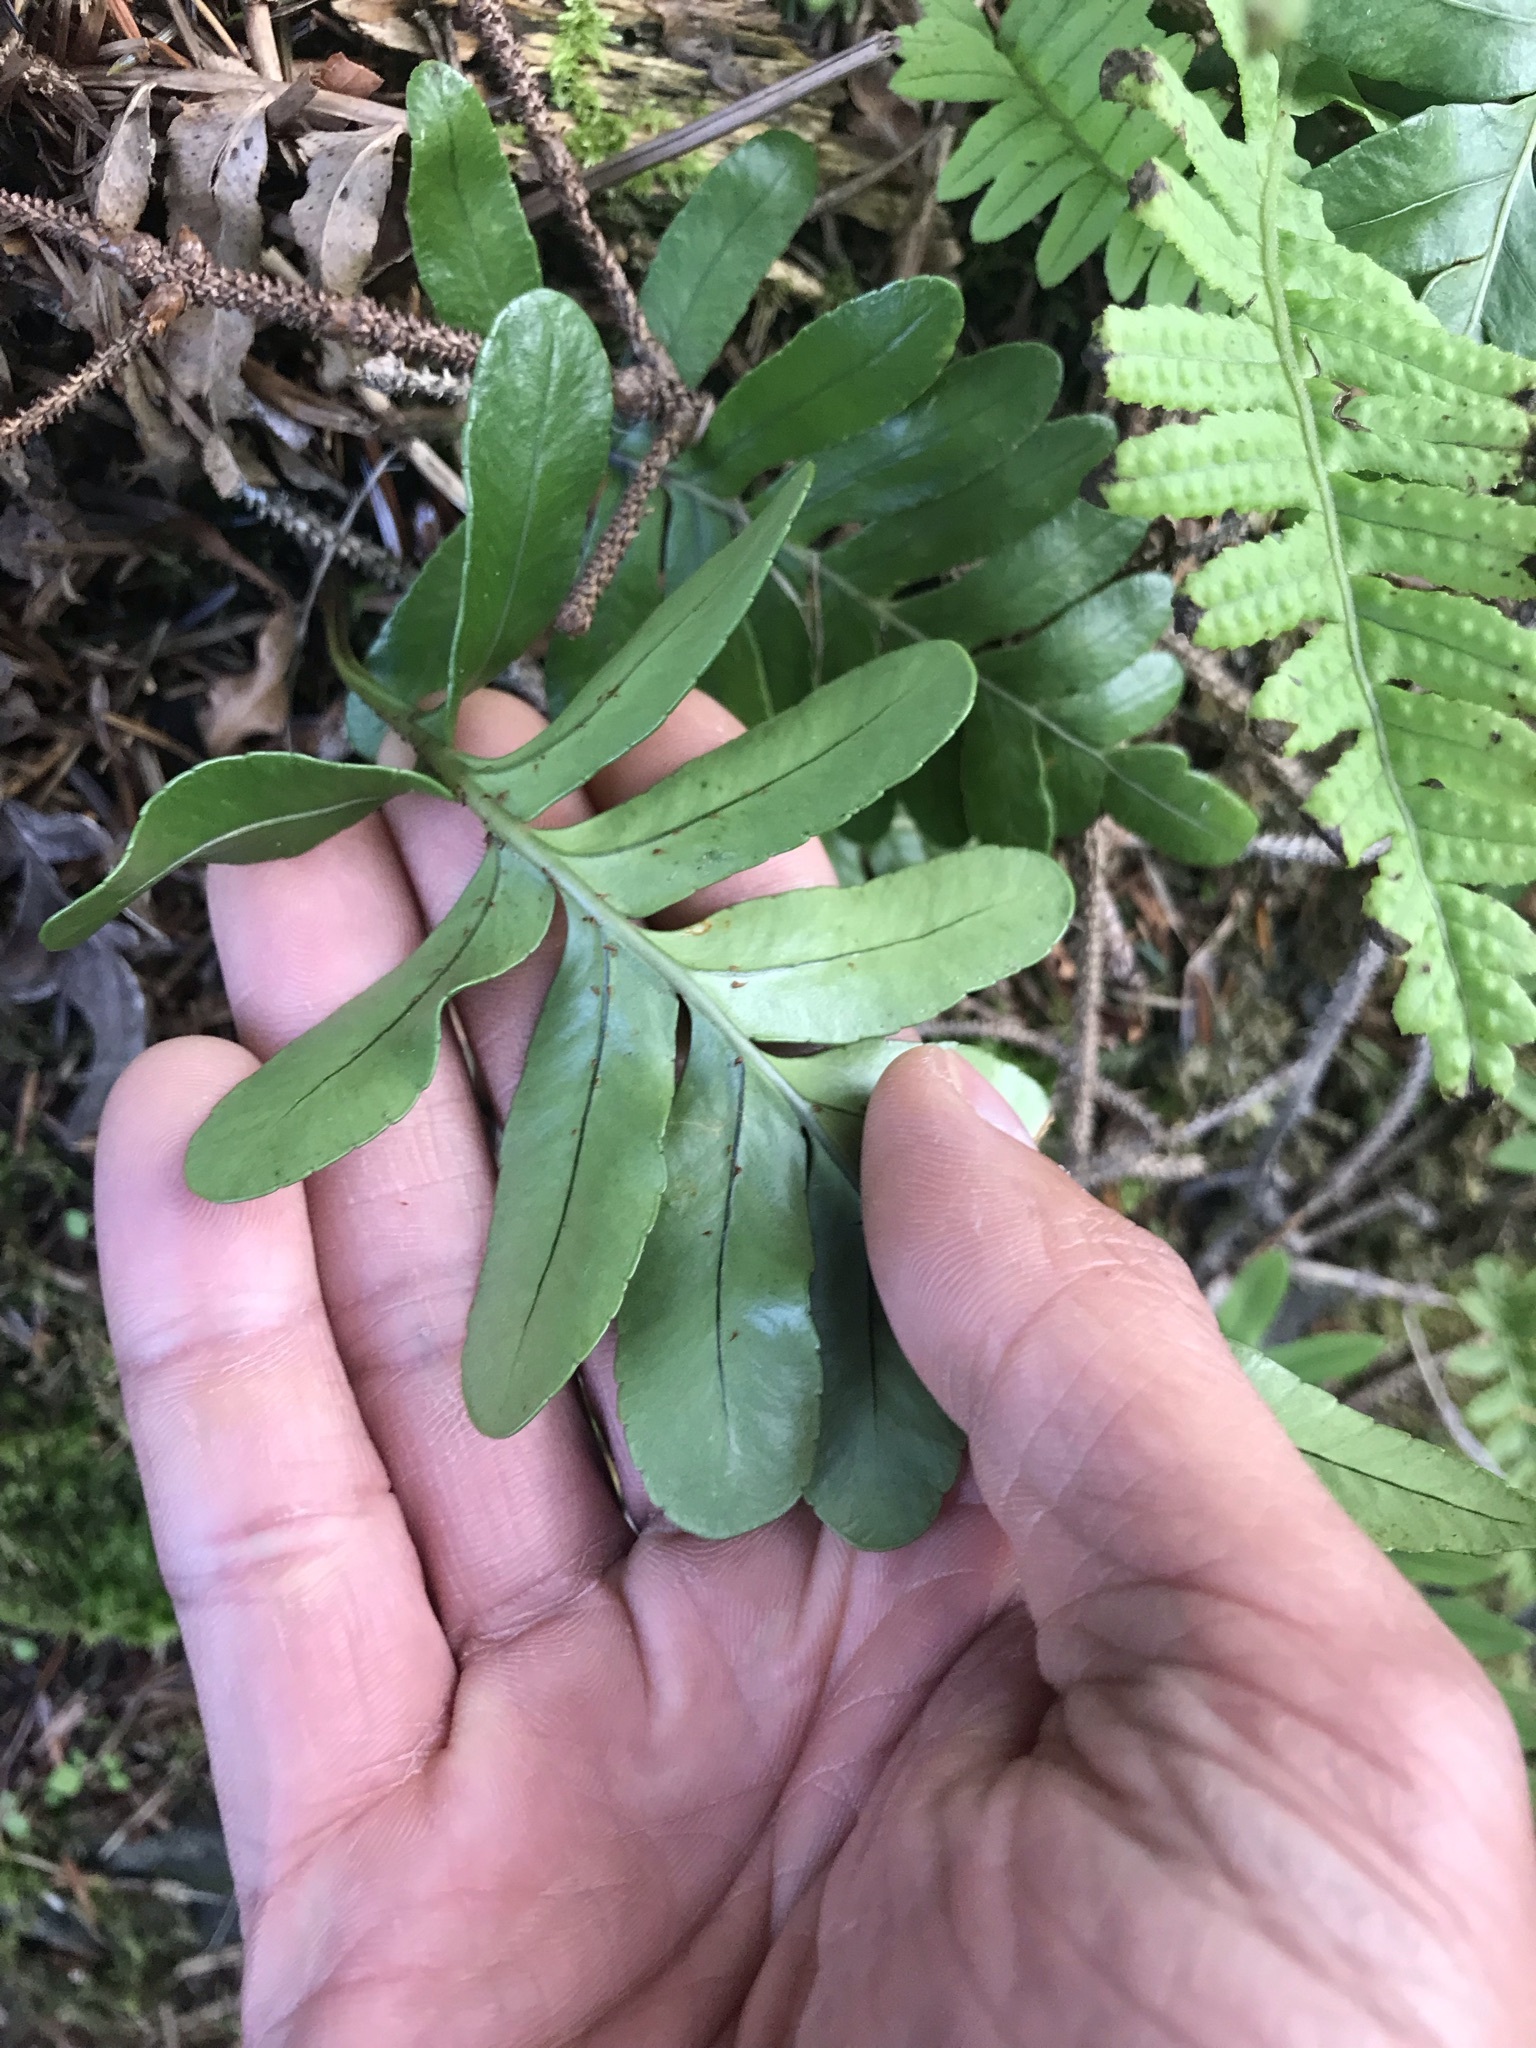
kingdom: Plantae
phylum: Tracheophyta
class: Polypodiopsida
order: Polypodiales
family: Polypodiaceae
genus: Polypodium
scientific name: Polypodium scouleri
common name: Scouler's polypody
